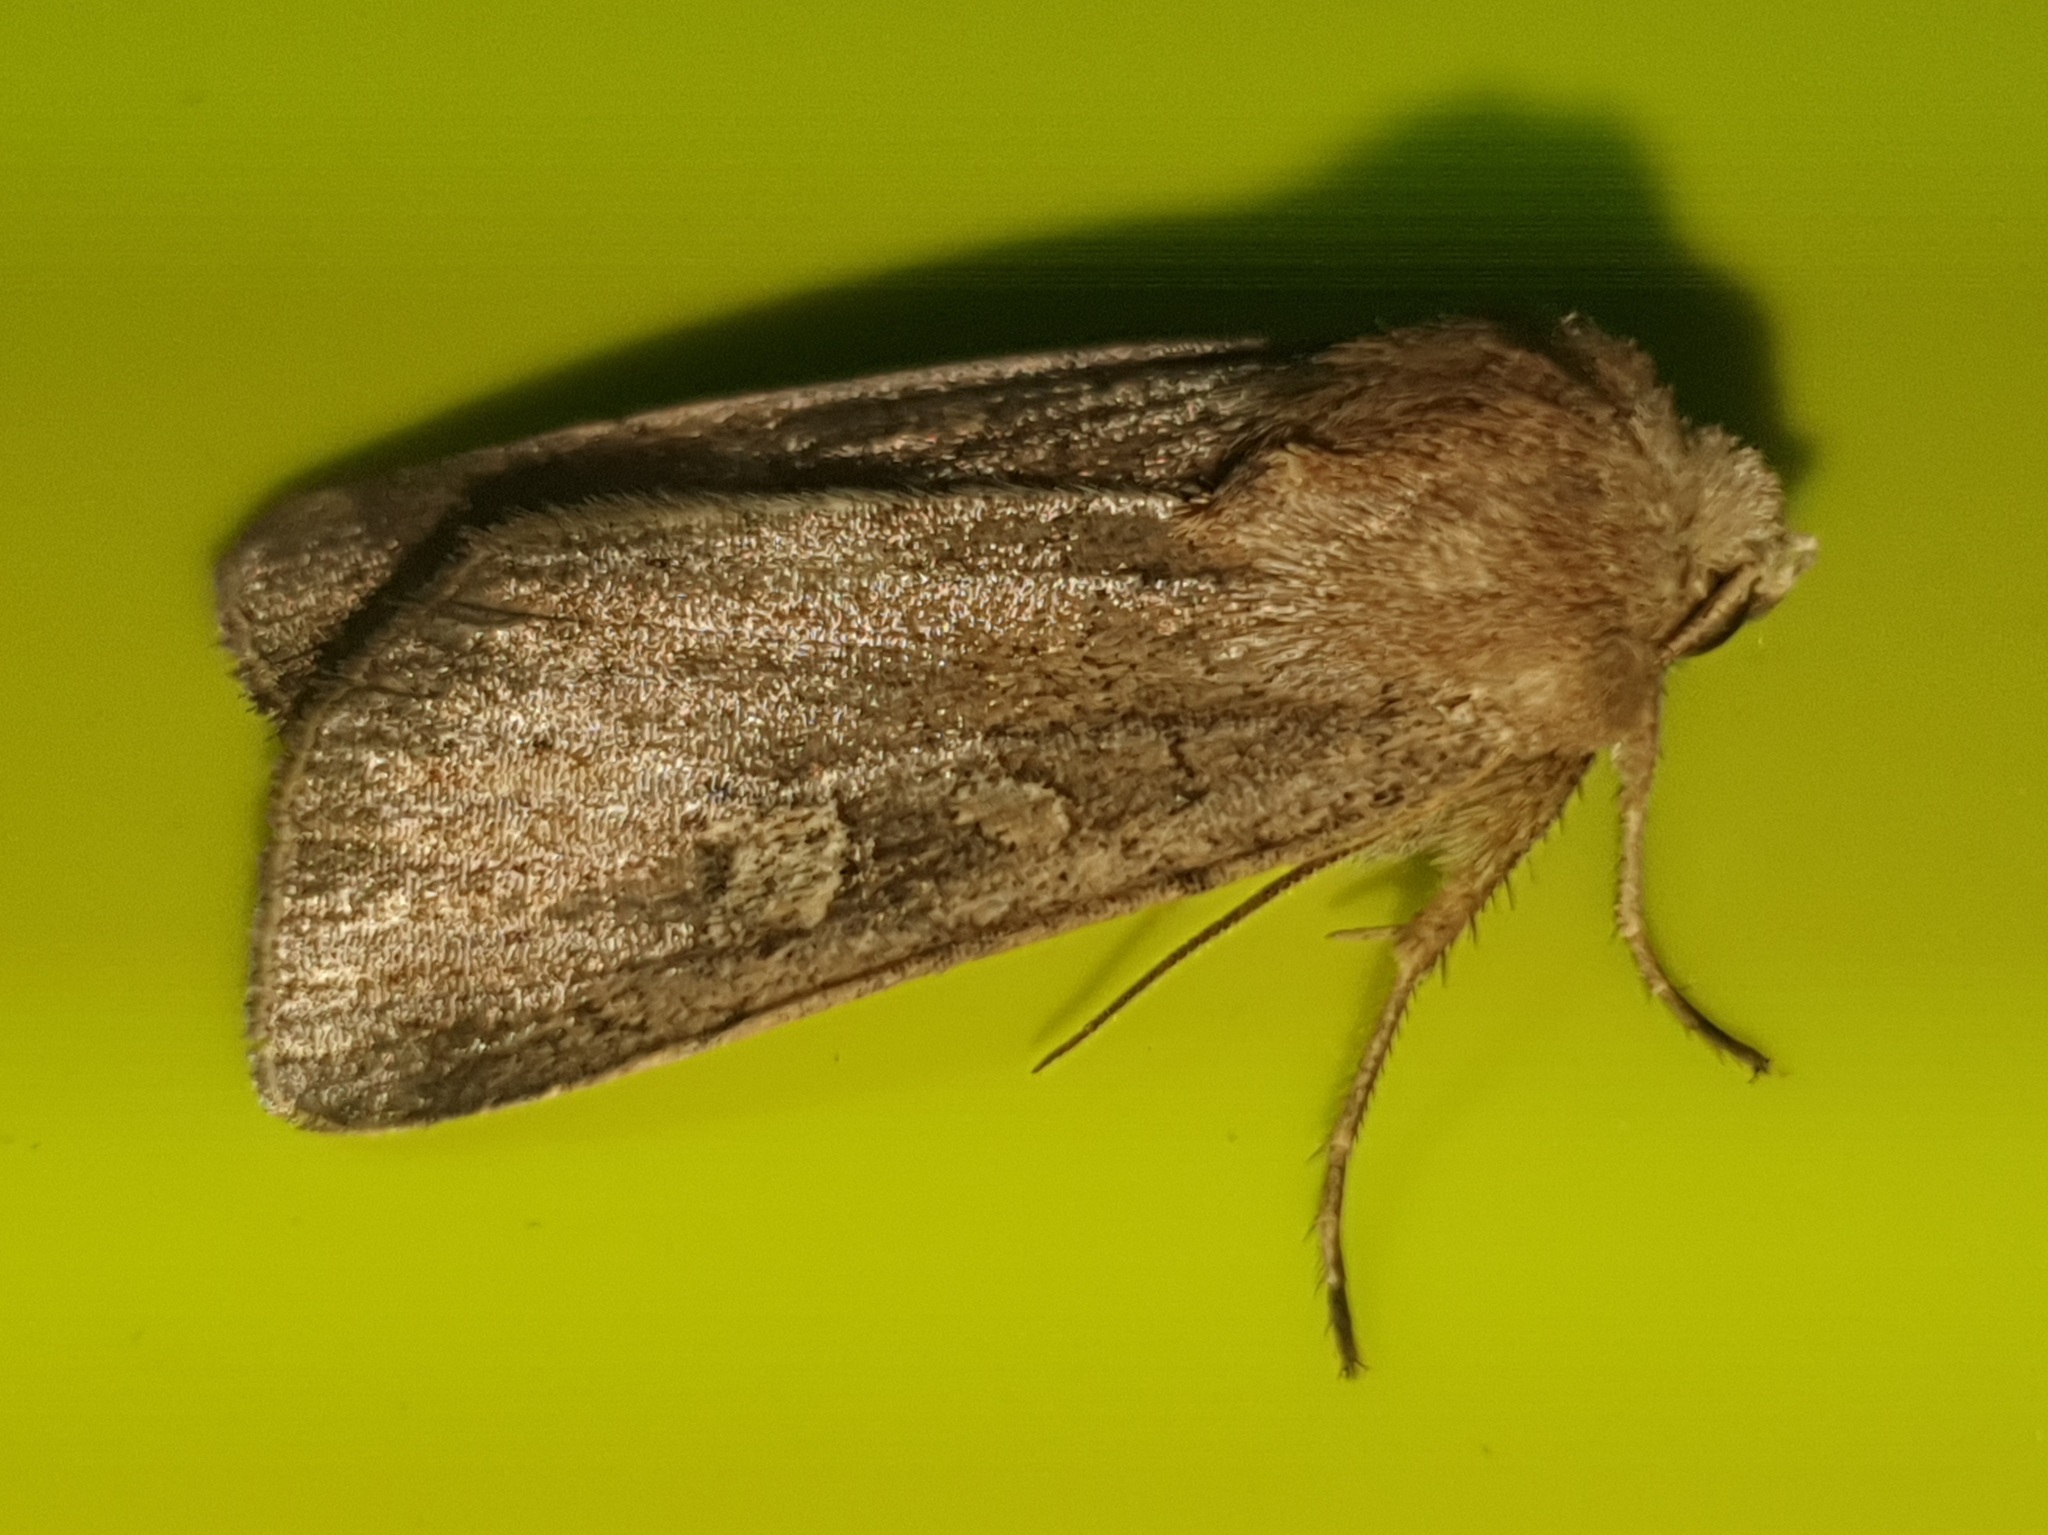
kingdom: Animalia
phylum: Arthropoda
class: Insecta
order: Lepidoptera
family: Noctuidae
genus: Xestia
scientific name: Xestia xanthographa
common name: Square-spot rustic
